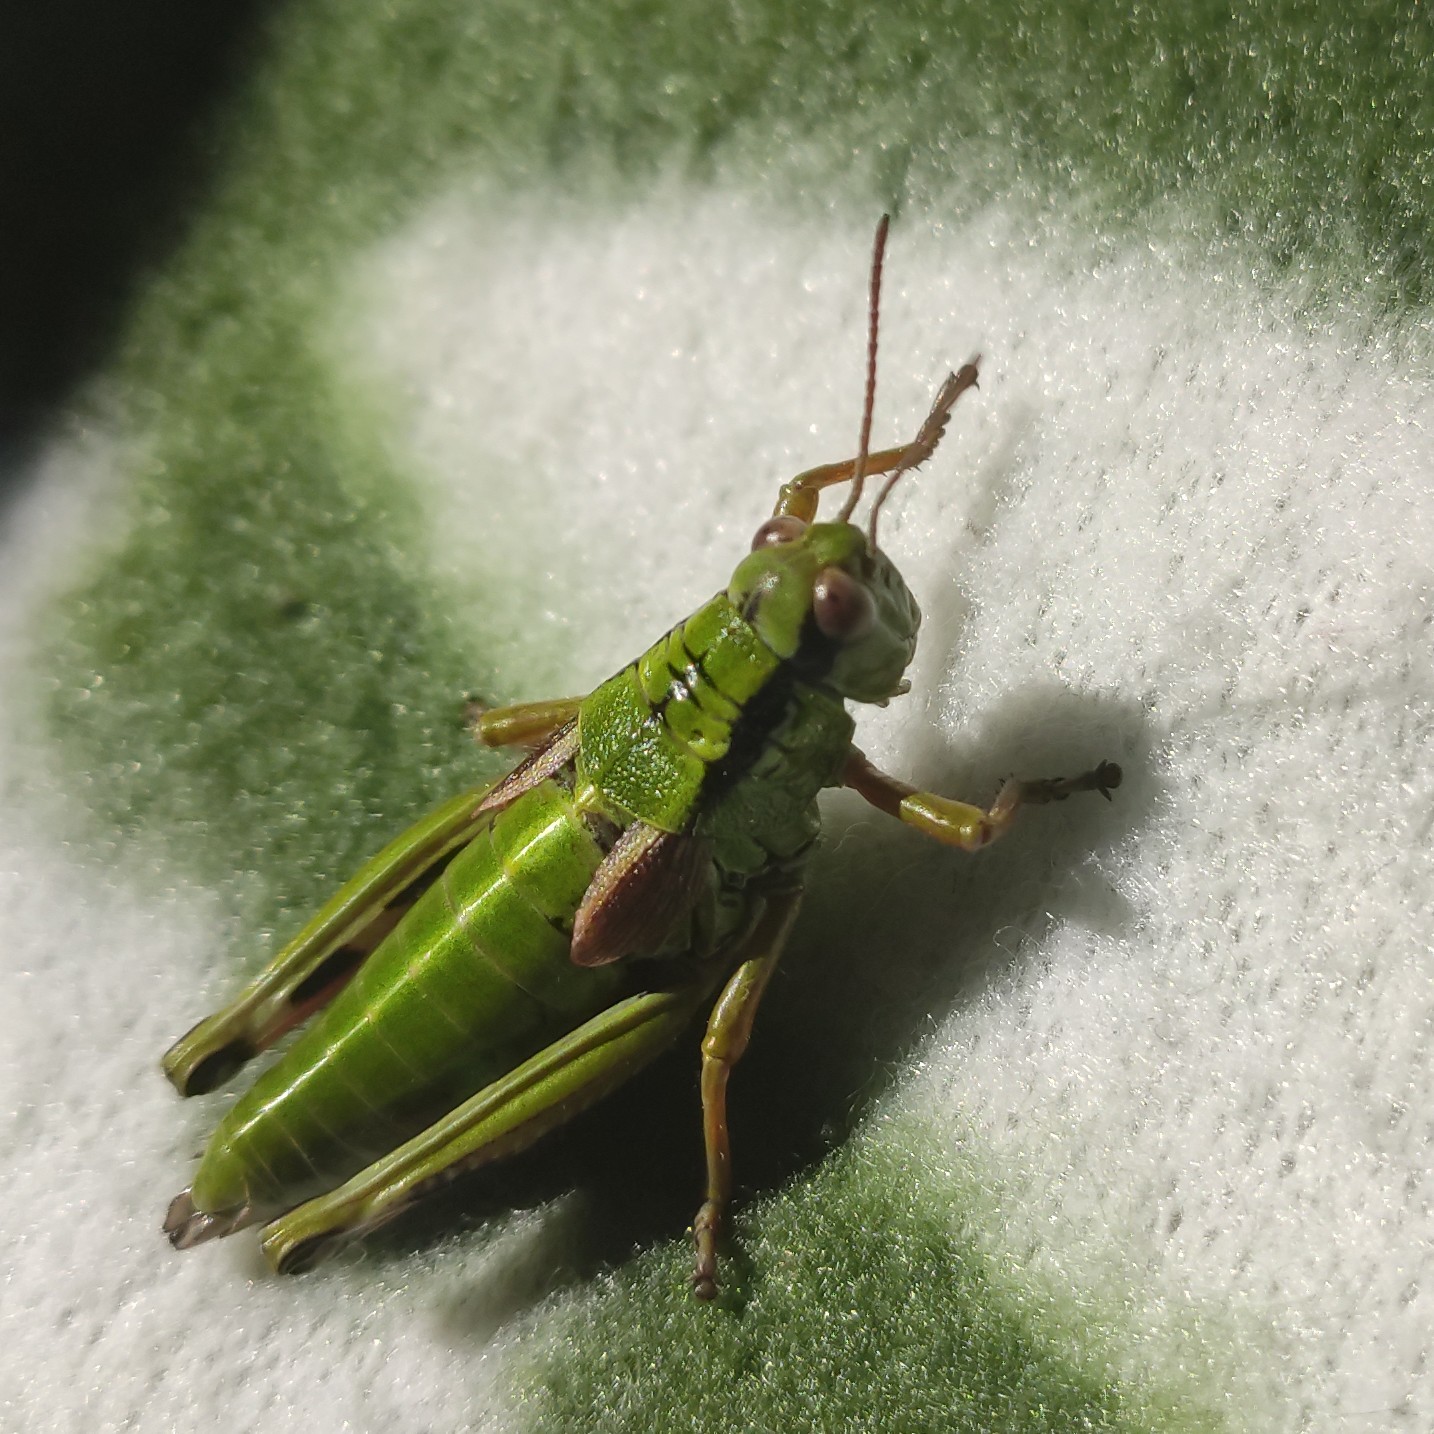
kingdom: Animalia
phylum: Arthropoda
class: Insecta
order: Orthoptera
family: Acrididae
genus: Miramella
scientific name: Miramella alpina
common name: Green mountain grasshopper
